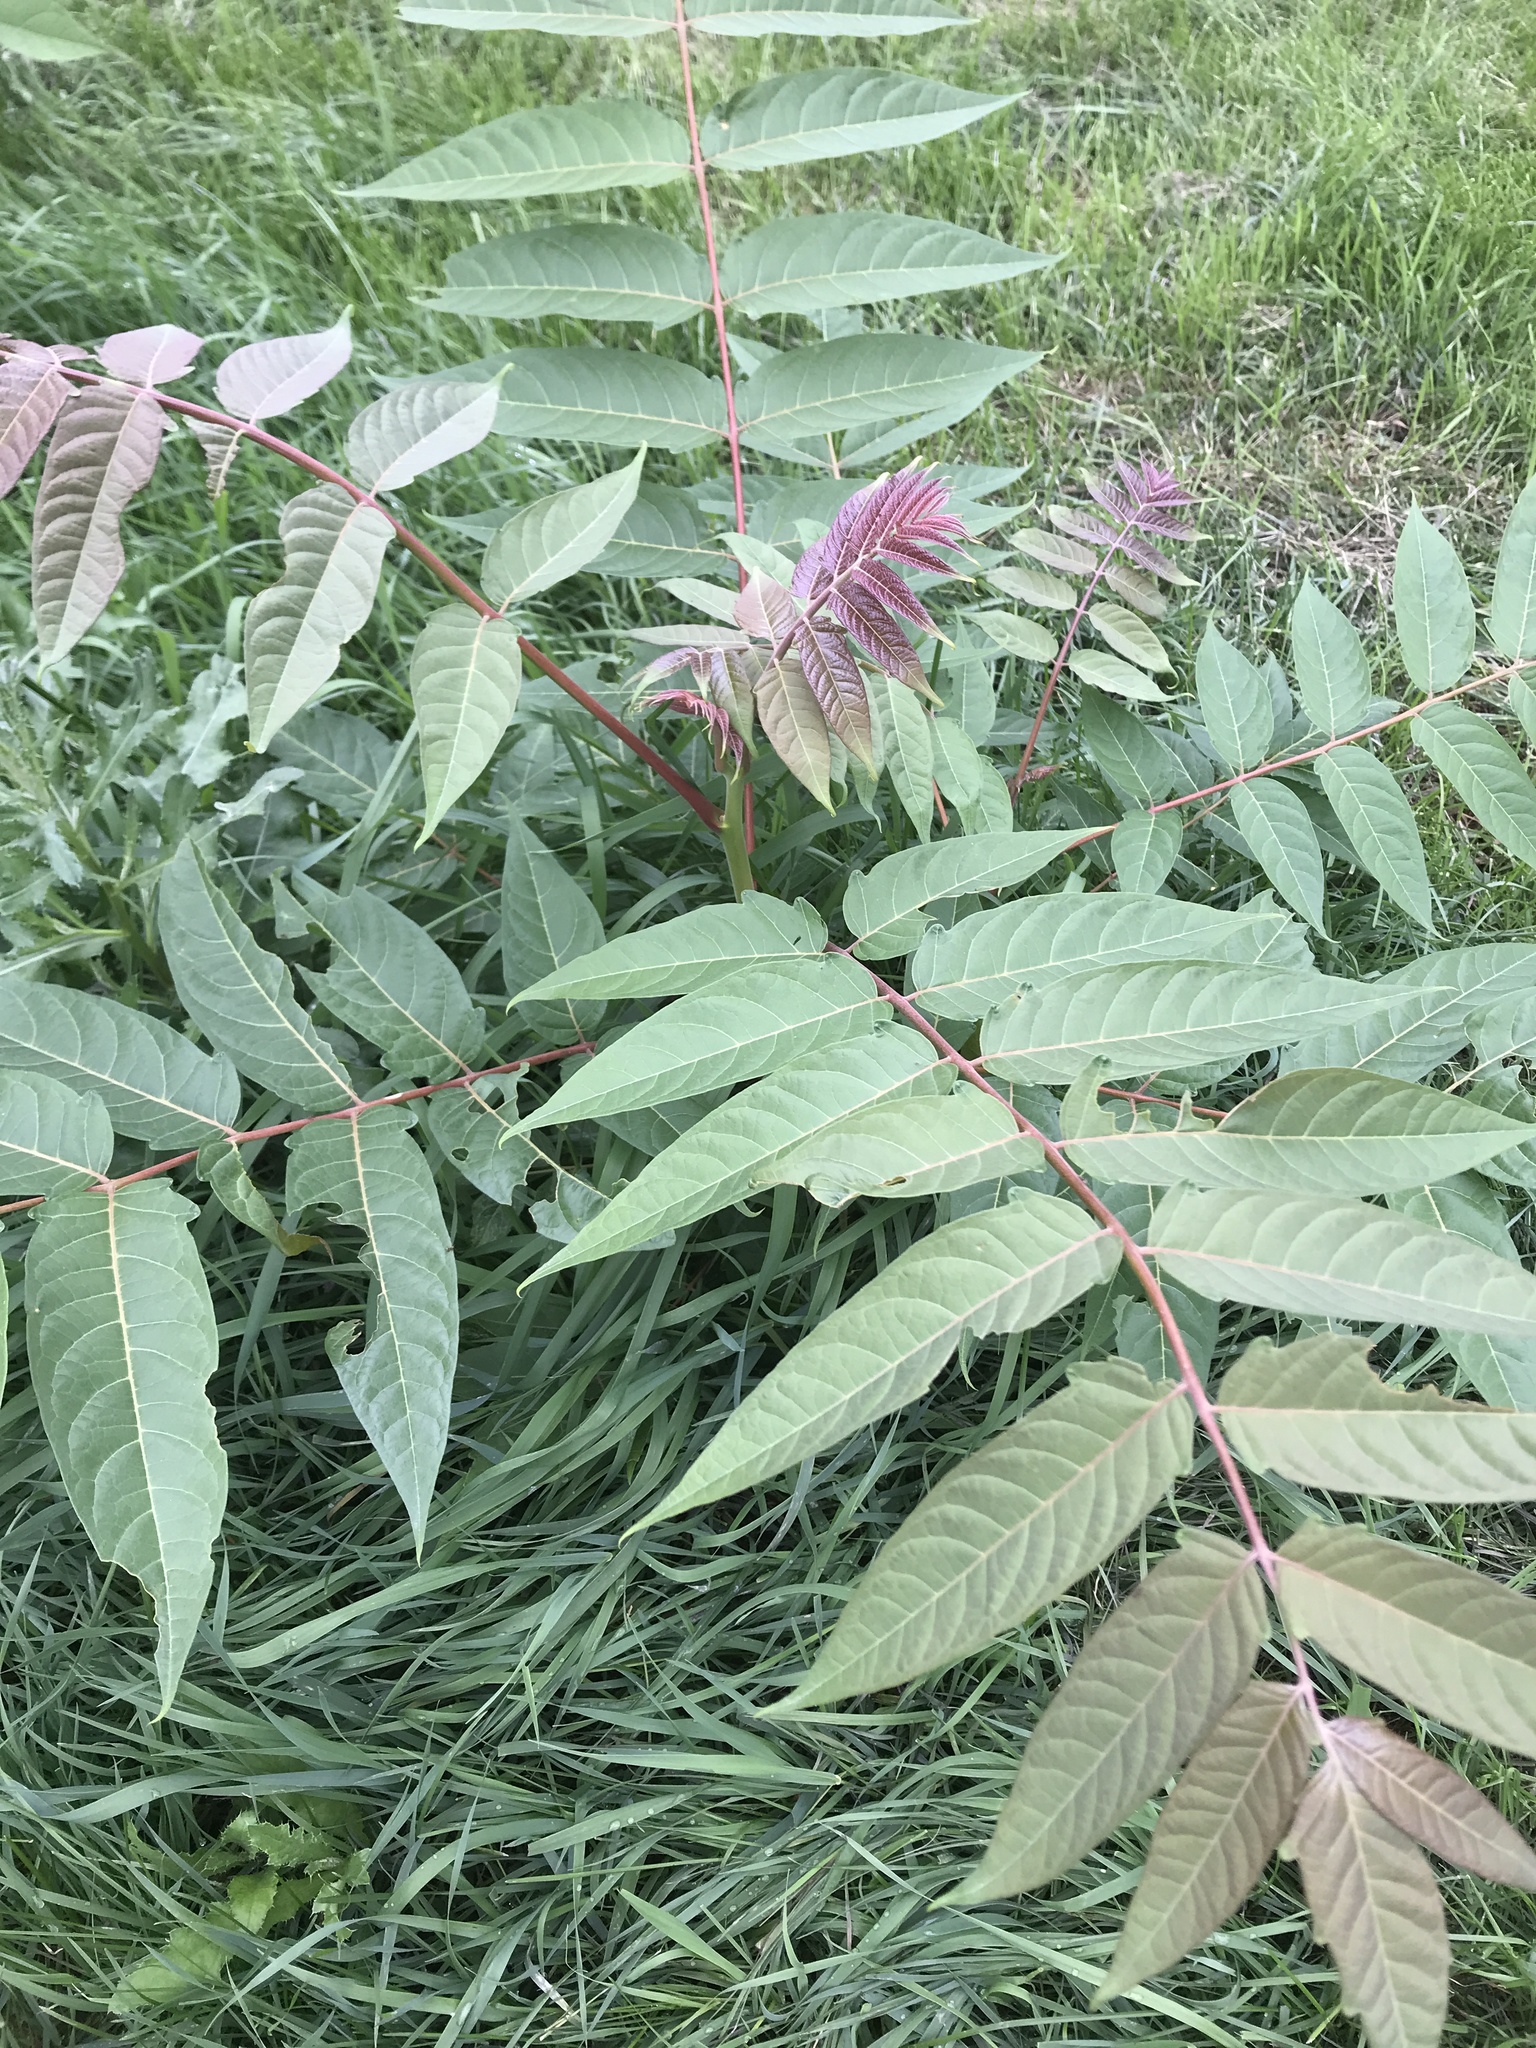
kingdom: Plantae
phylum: Tracheophyta
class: Magnoliopsida
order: Sapindales
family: Simaroubaceae
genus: Ailanthus
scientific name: Ailanthus altissima
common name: Tree-of-heaven
